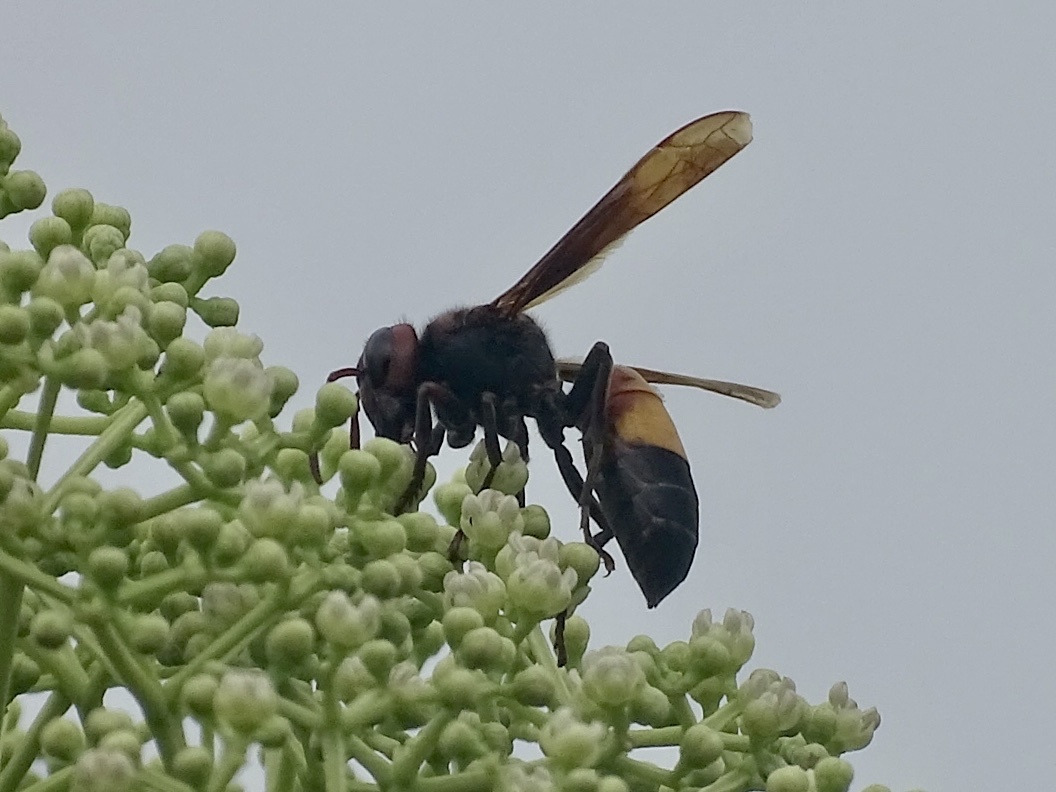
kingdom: Animalia
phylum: Arthropoda
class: Insecta
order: Hymenoptera
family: Vespidae
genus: Vespa
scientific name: Vespa affinis
